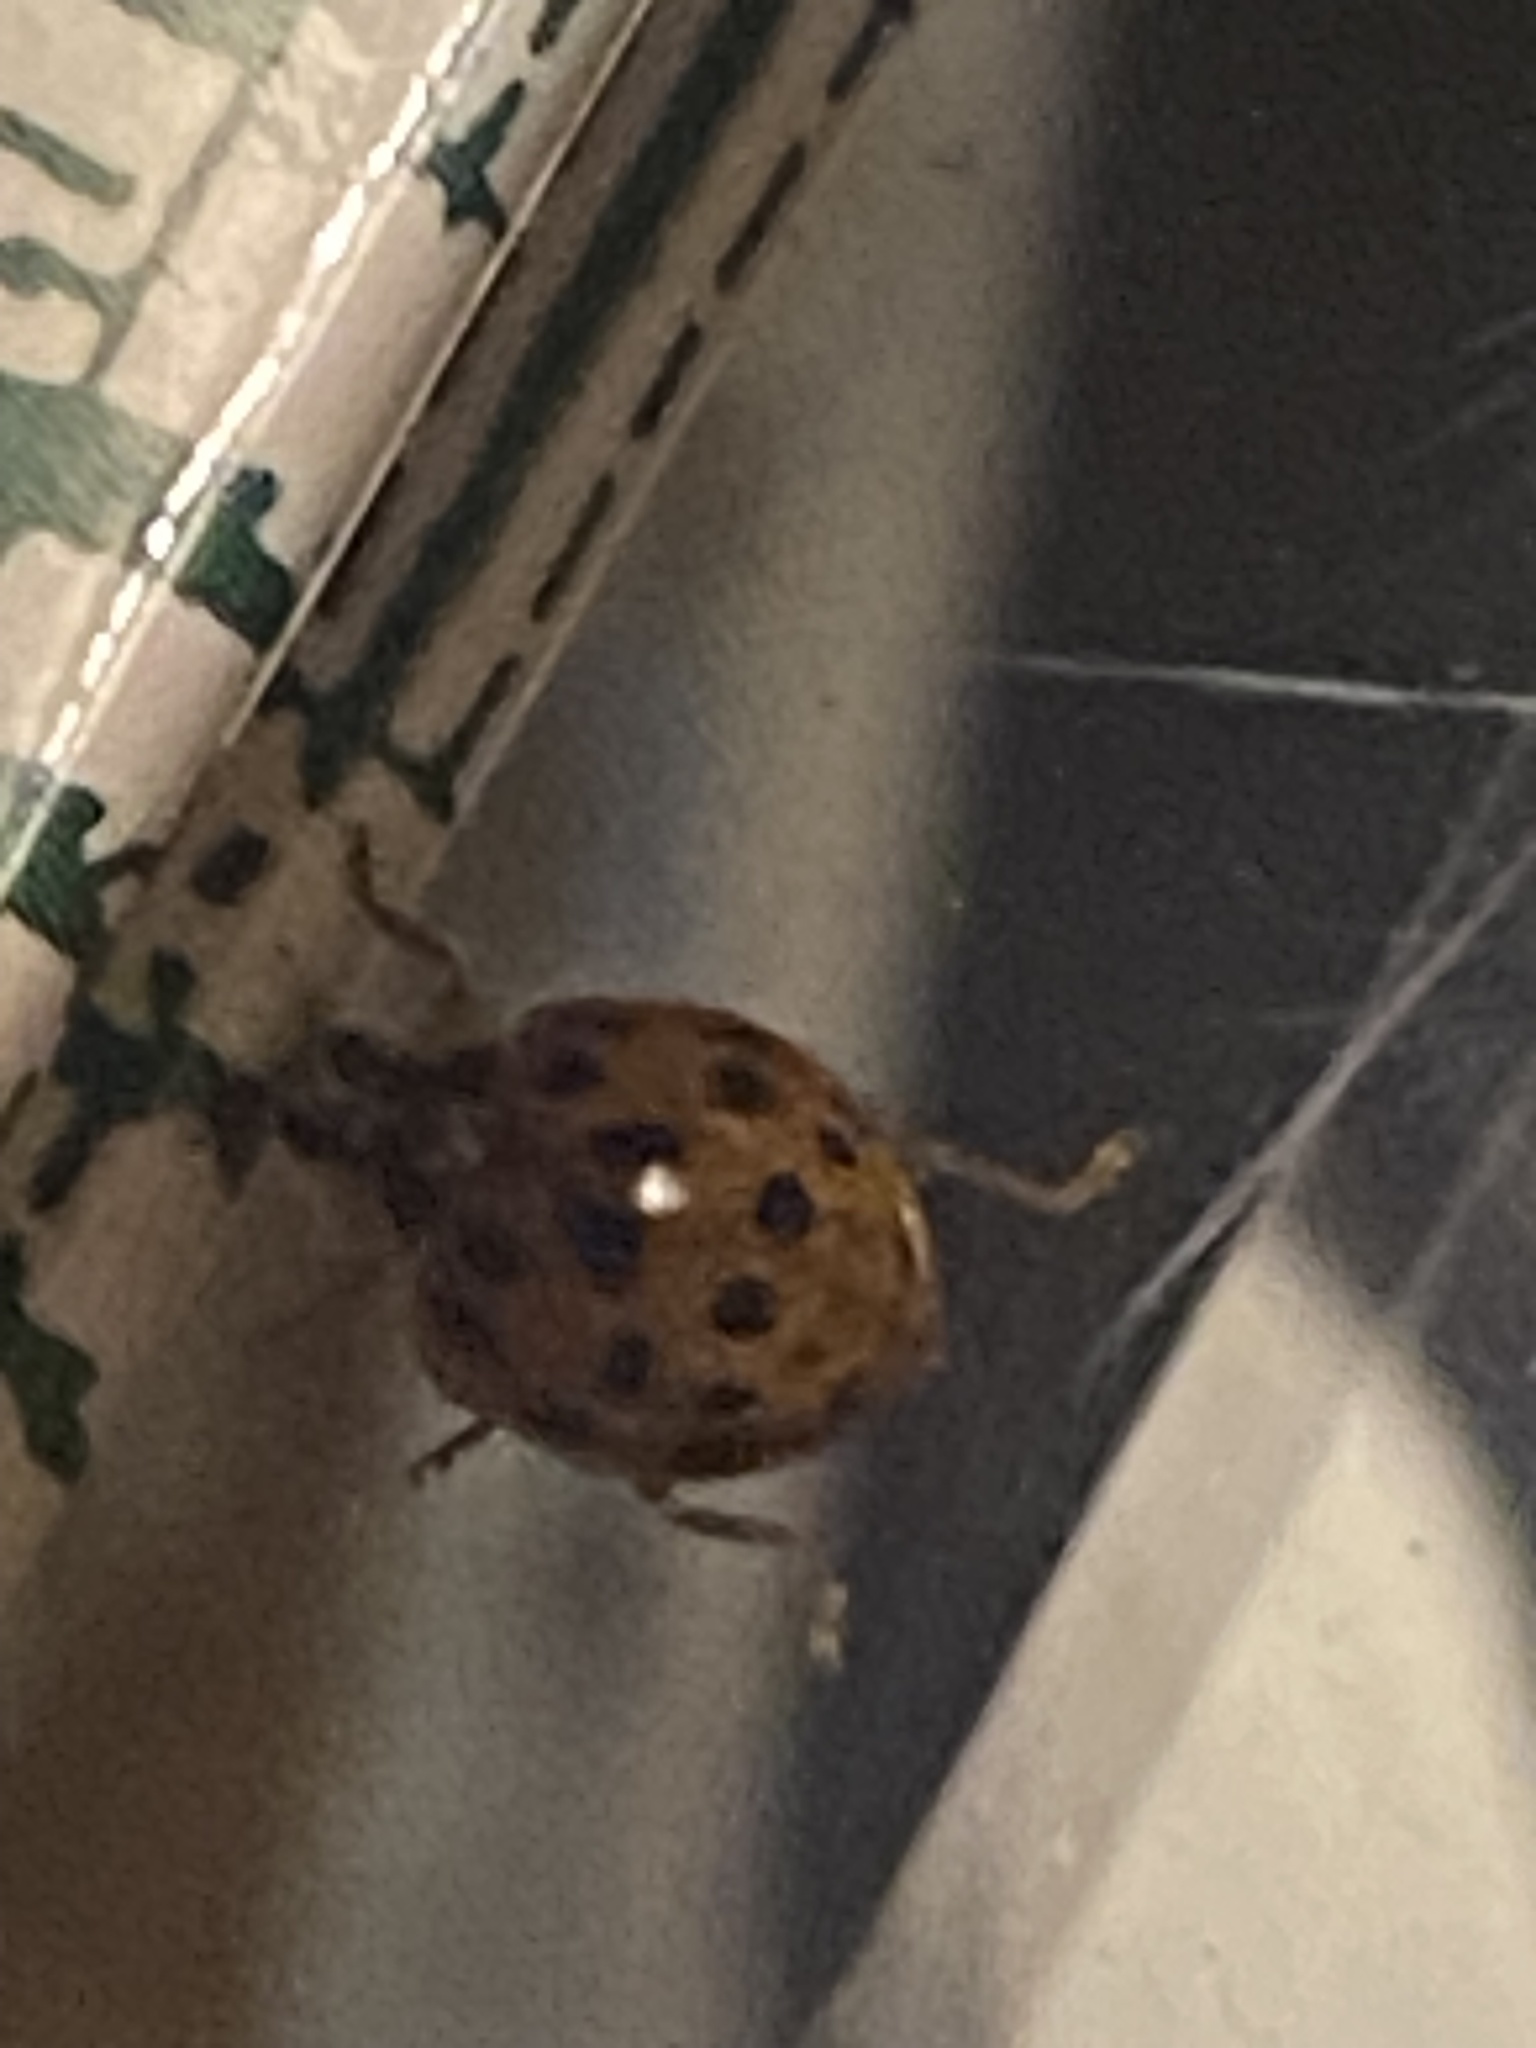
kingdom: Animalia
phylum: Arthropoda
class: Insecta
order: Coleoptera
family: Coccinellidae
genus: Harmonia
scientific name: Harmonia axyridis
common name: Harlequin ladybird
